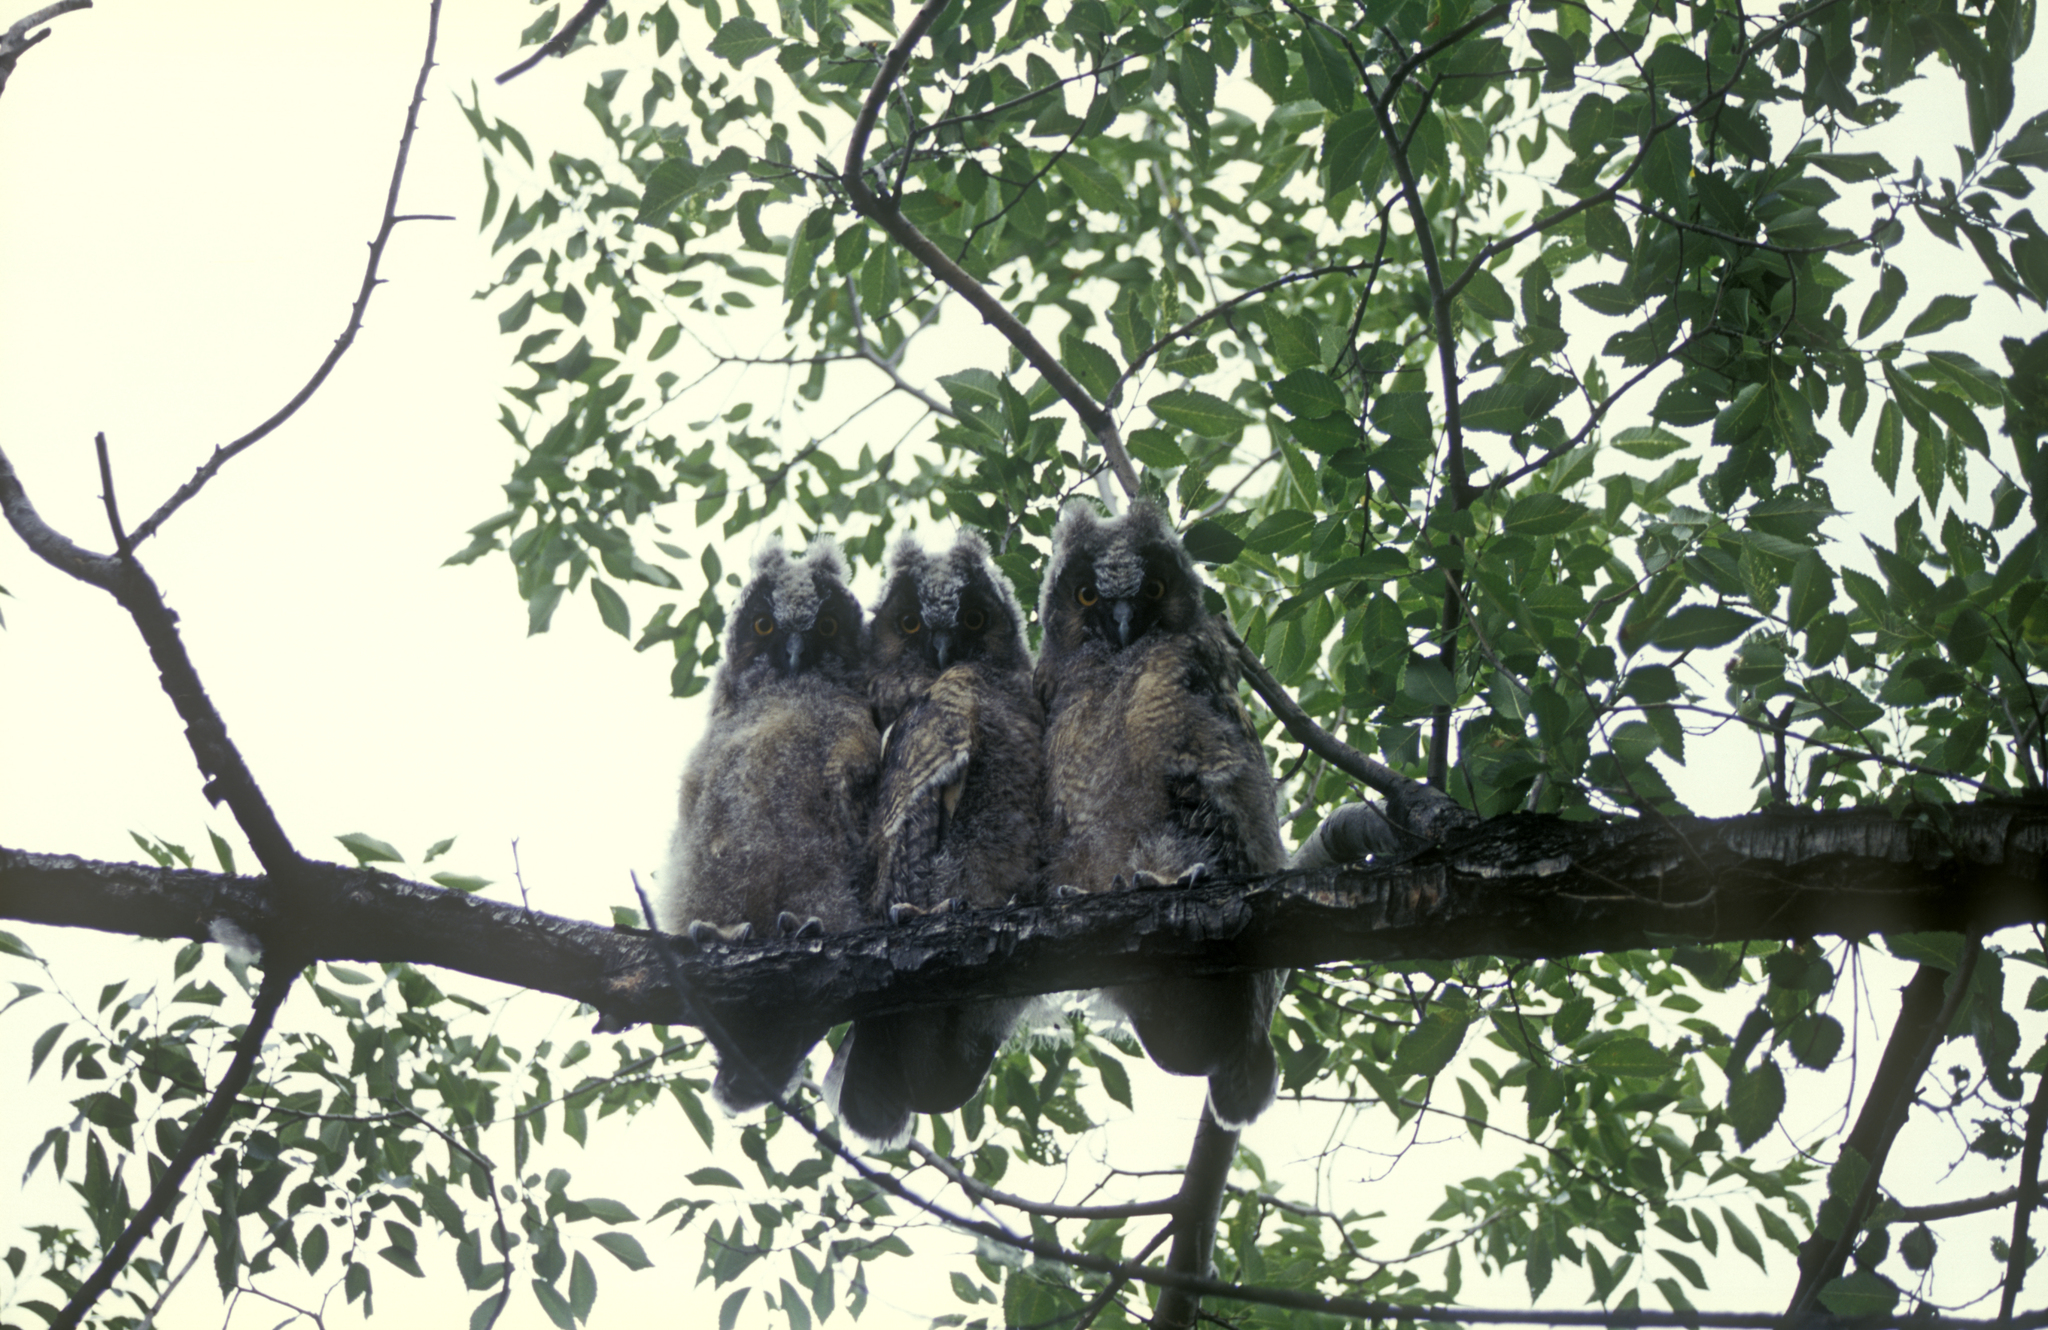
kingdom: Animalia
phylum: Chordata
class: Aves
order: Strigiformes
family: Strigidae
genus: Asio
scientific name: Asio otus
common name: Long-eared owl
